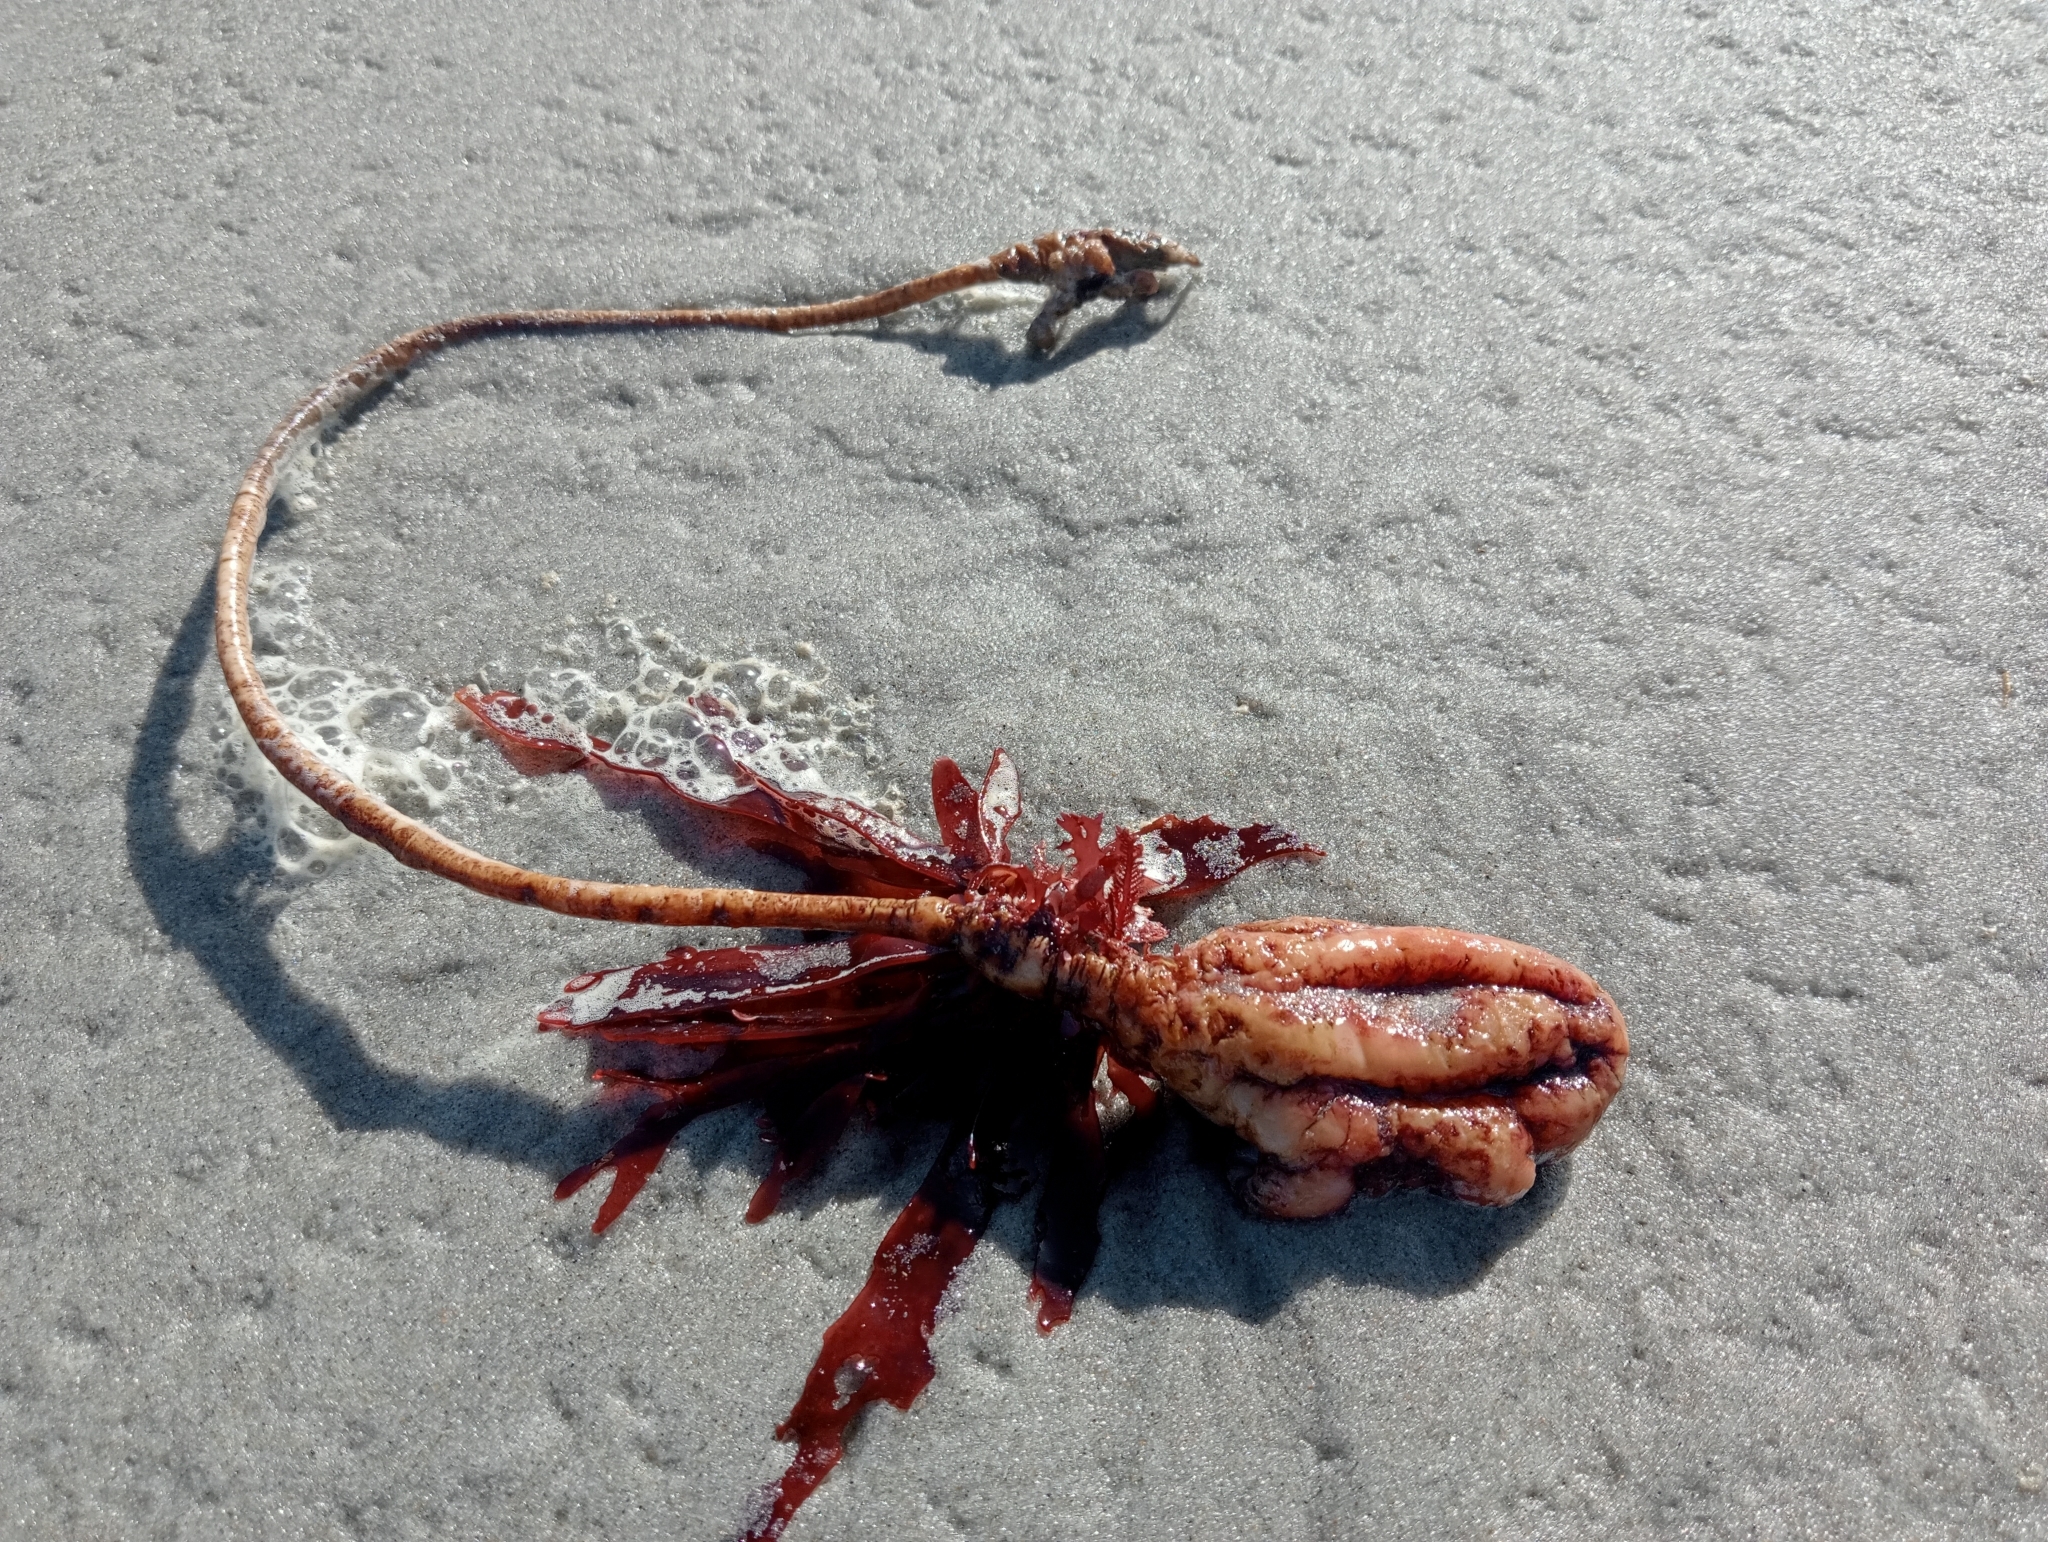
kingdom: Animalia
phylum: Chordata
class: Ascidiacea
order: Stolidobranchia
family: Pyuridae
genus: Pyura
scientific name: Pyura pachydermatina
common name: Sea tulip
